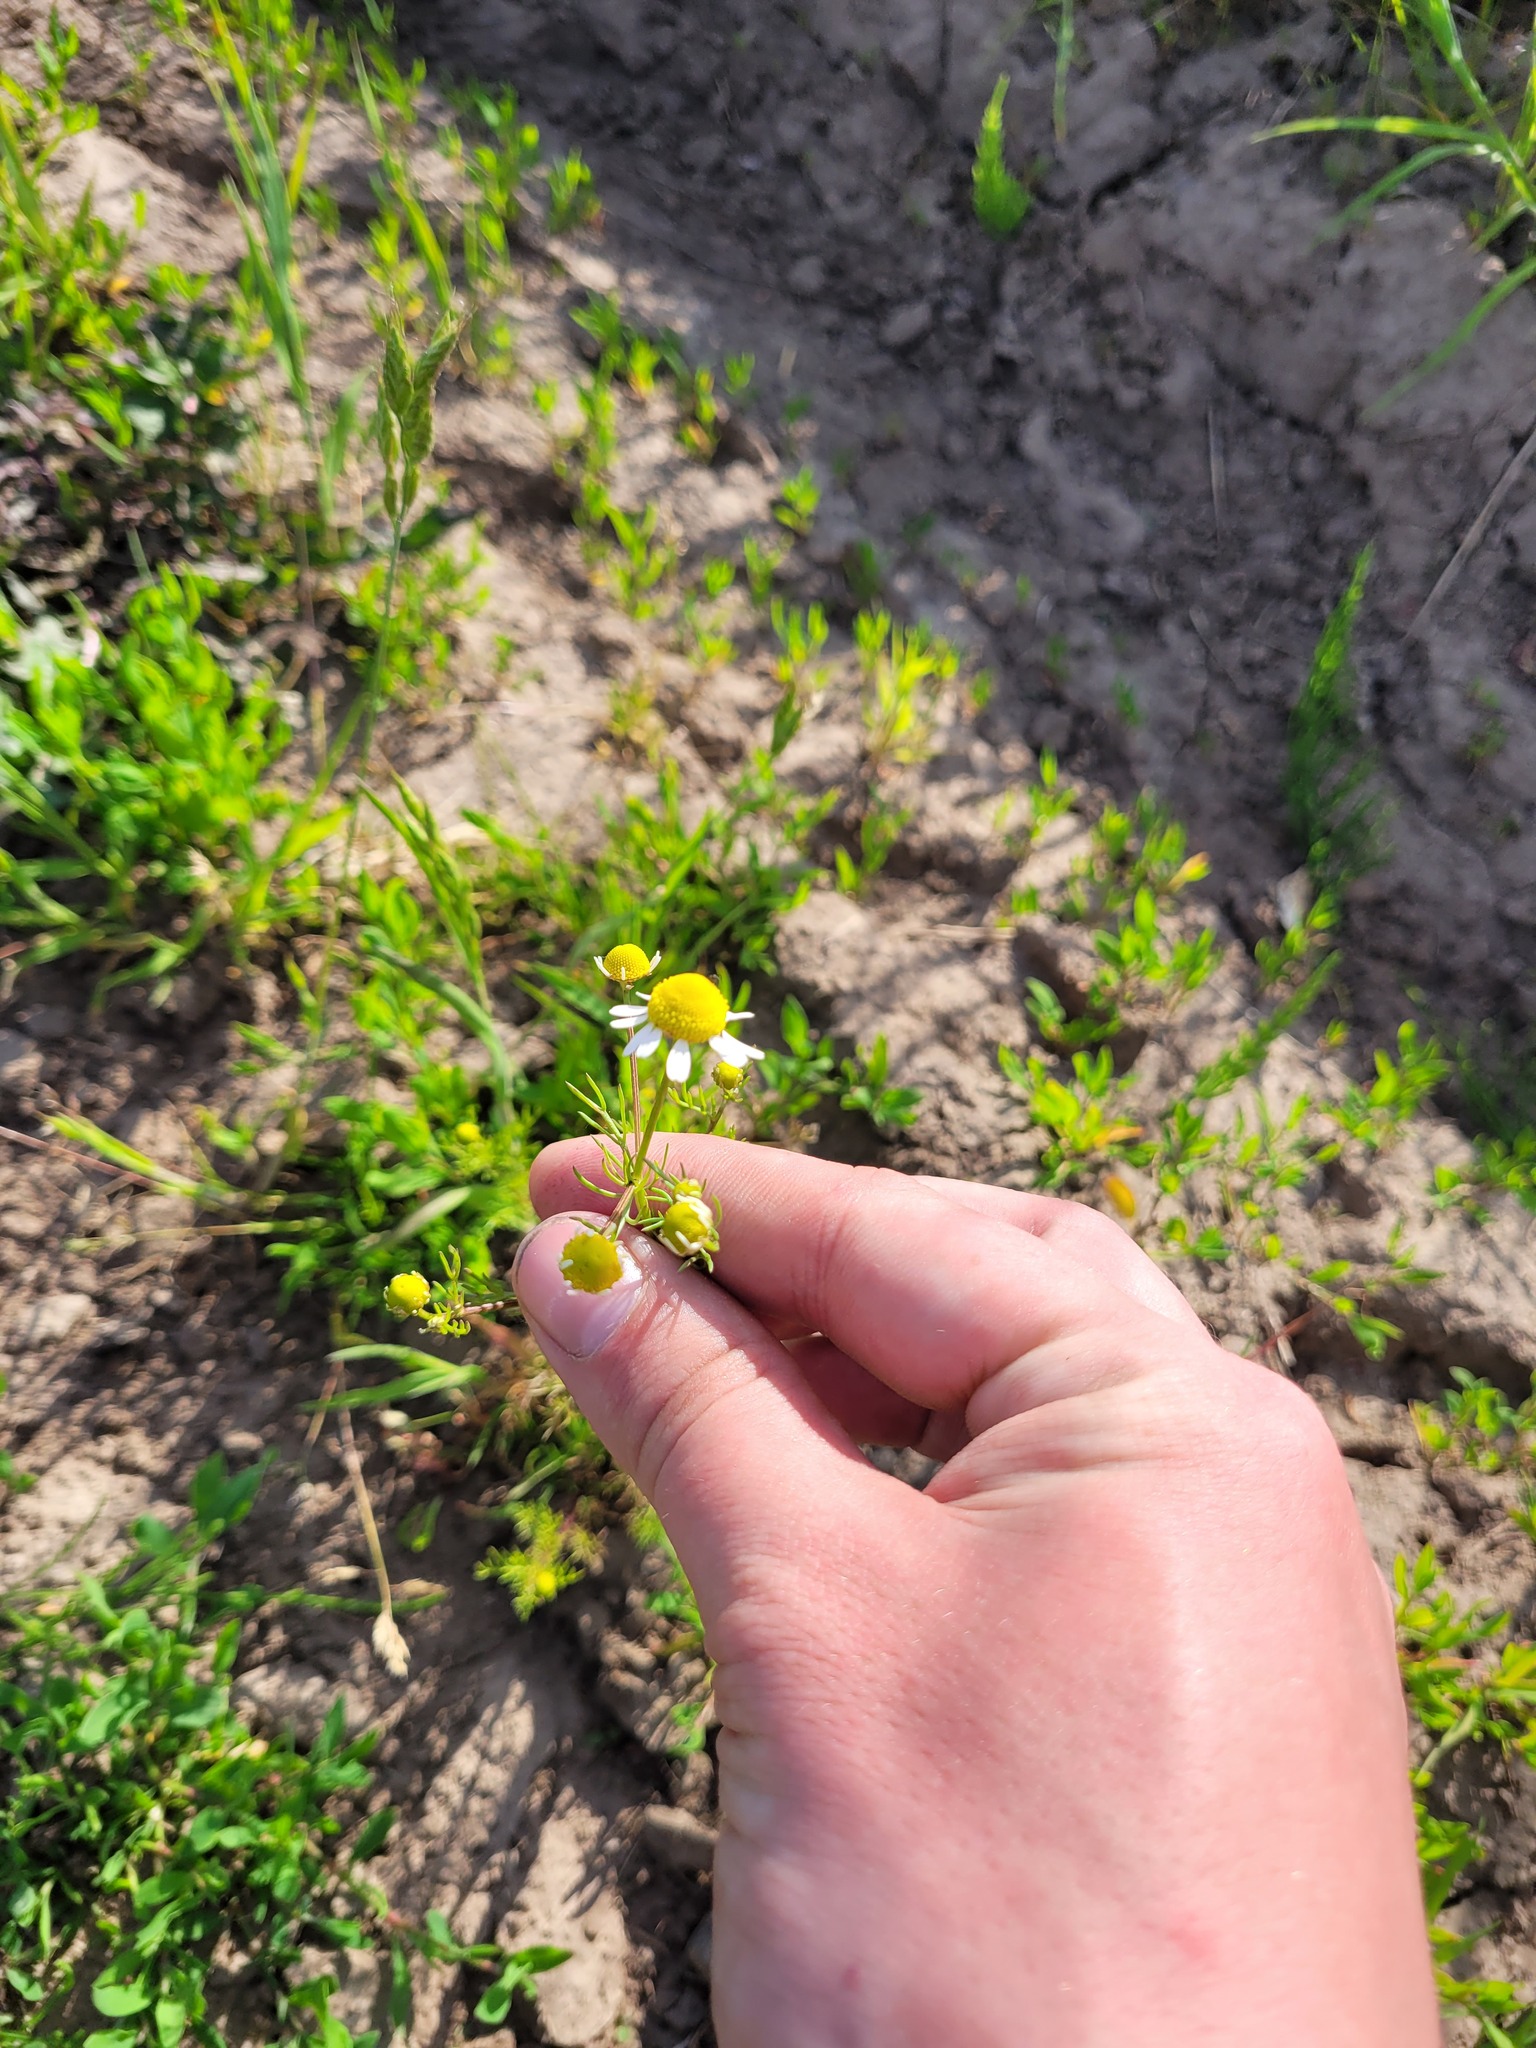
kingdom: Plantae
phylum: Tracheophyta
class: Magnoliopsida
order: Asterales
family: Asteraceae
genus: Matricaria
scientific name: Matricaria chamomilla
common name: Scented mayweed
